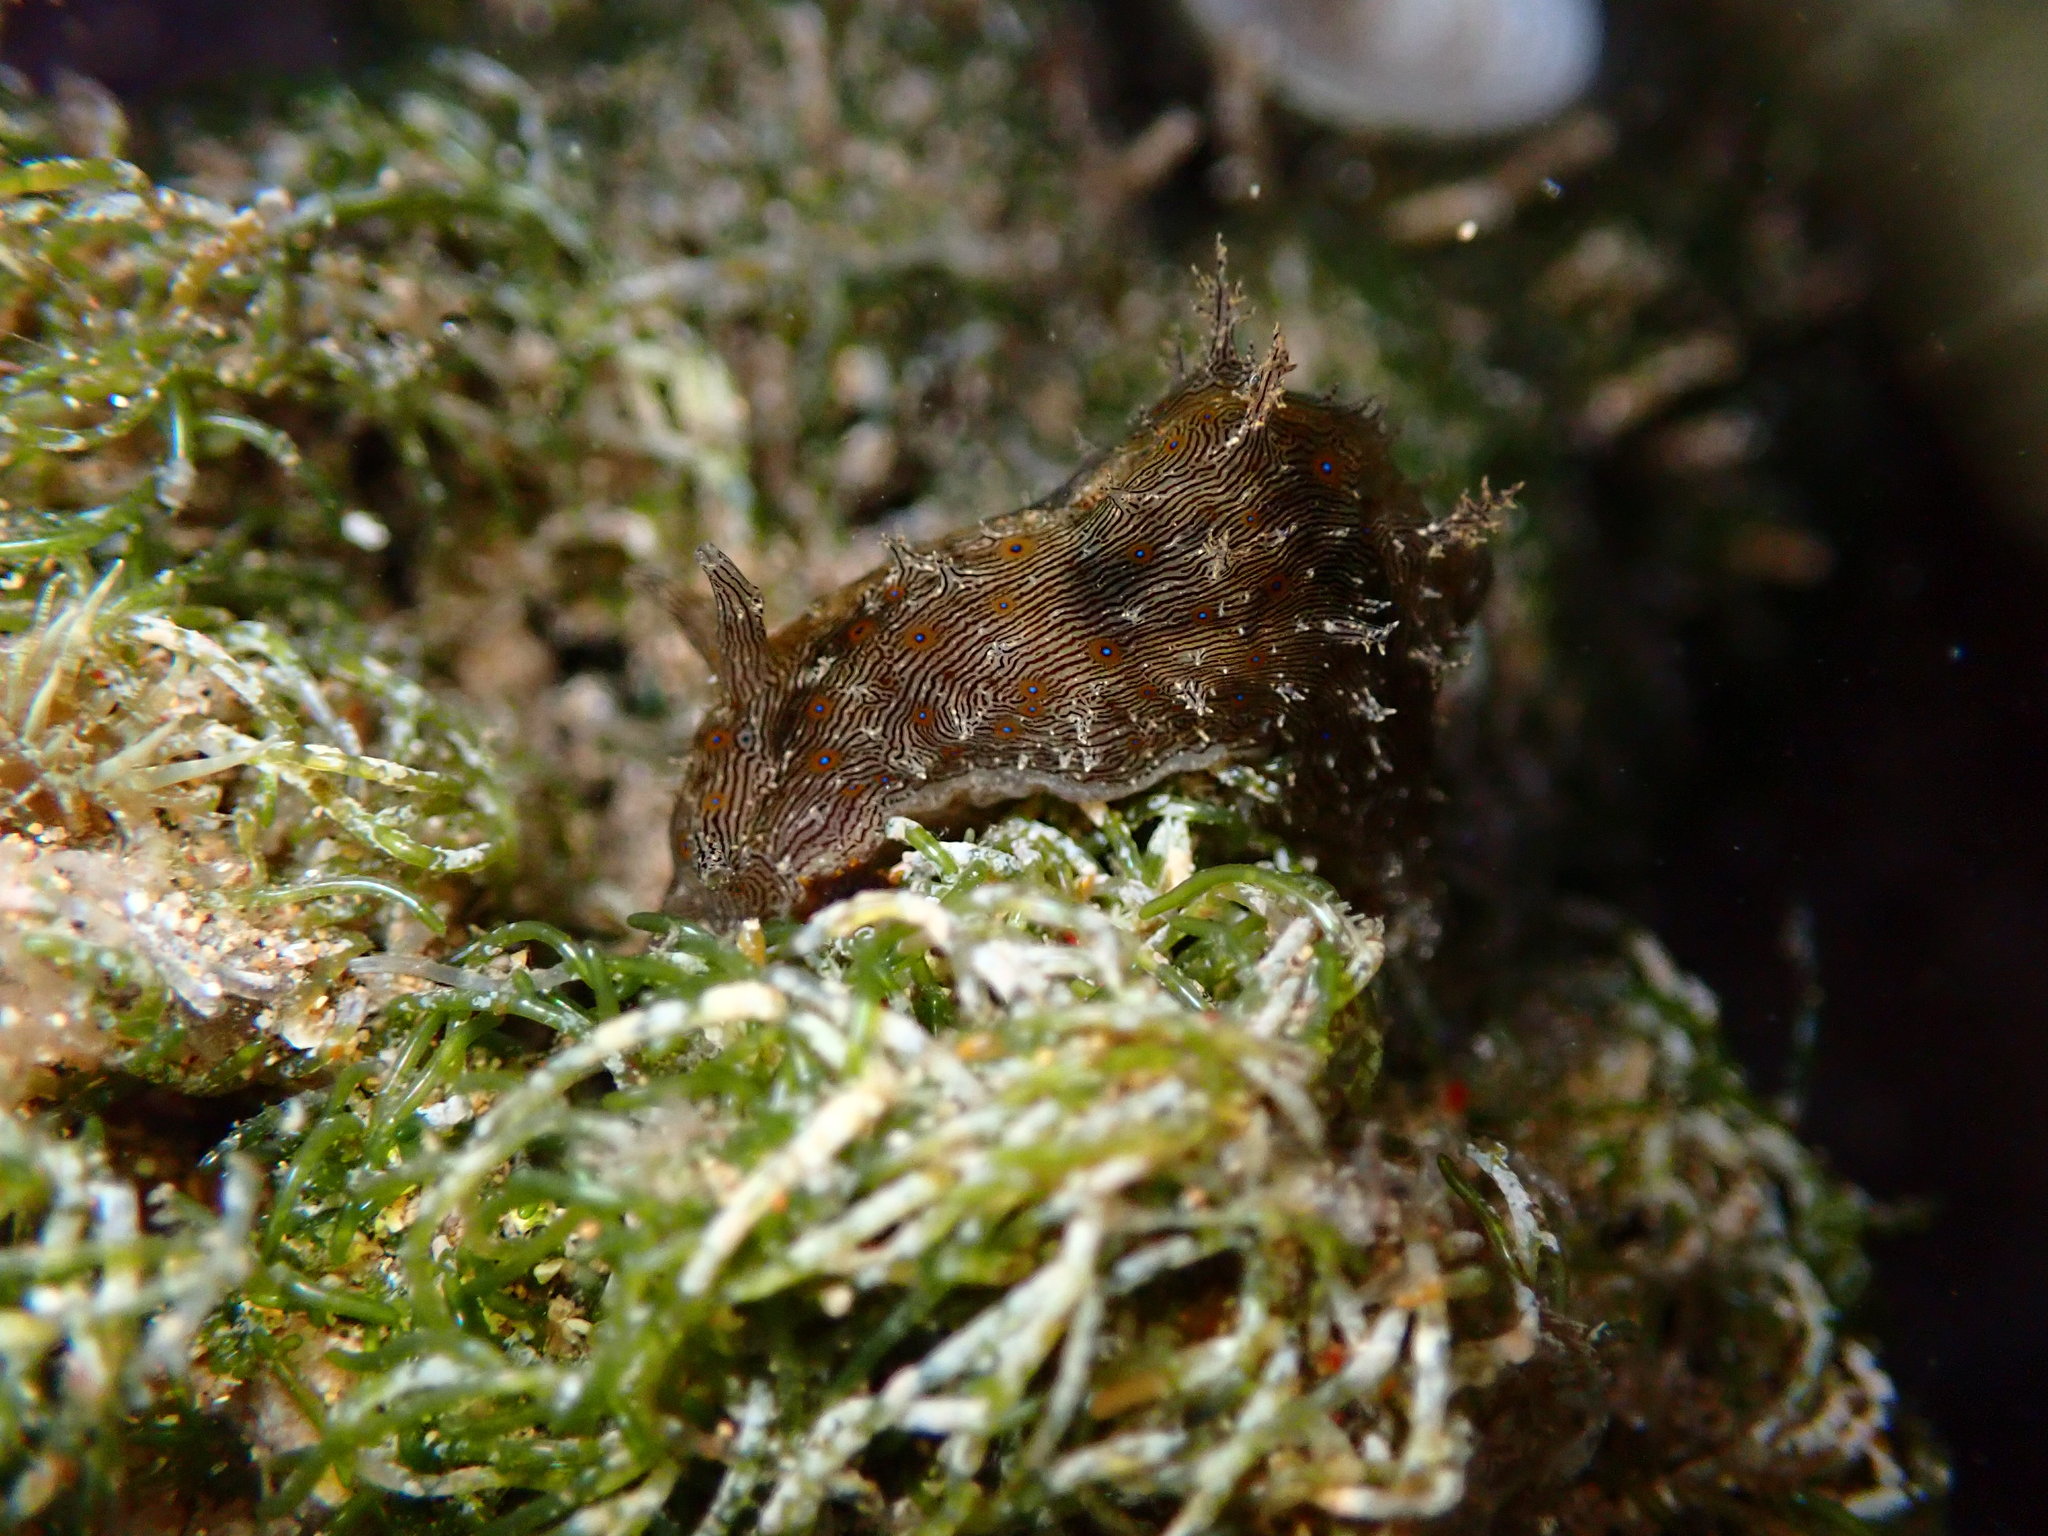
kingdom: Animalia
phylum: Mollusca
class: Gastropoda
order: Aplysiida
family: Aplysiidae
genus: Stylocheilus
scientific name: Stylocheilus striatus
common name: Striated seahare
